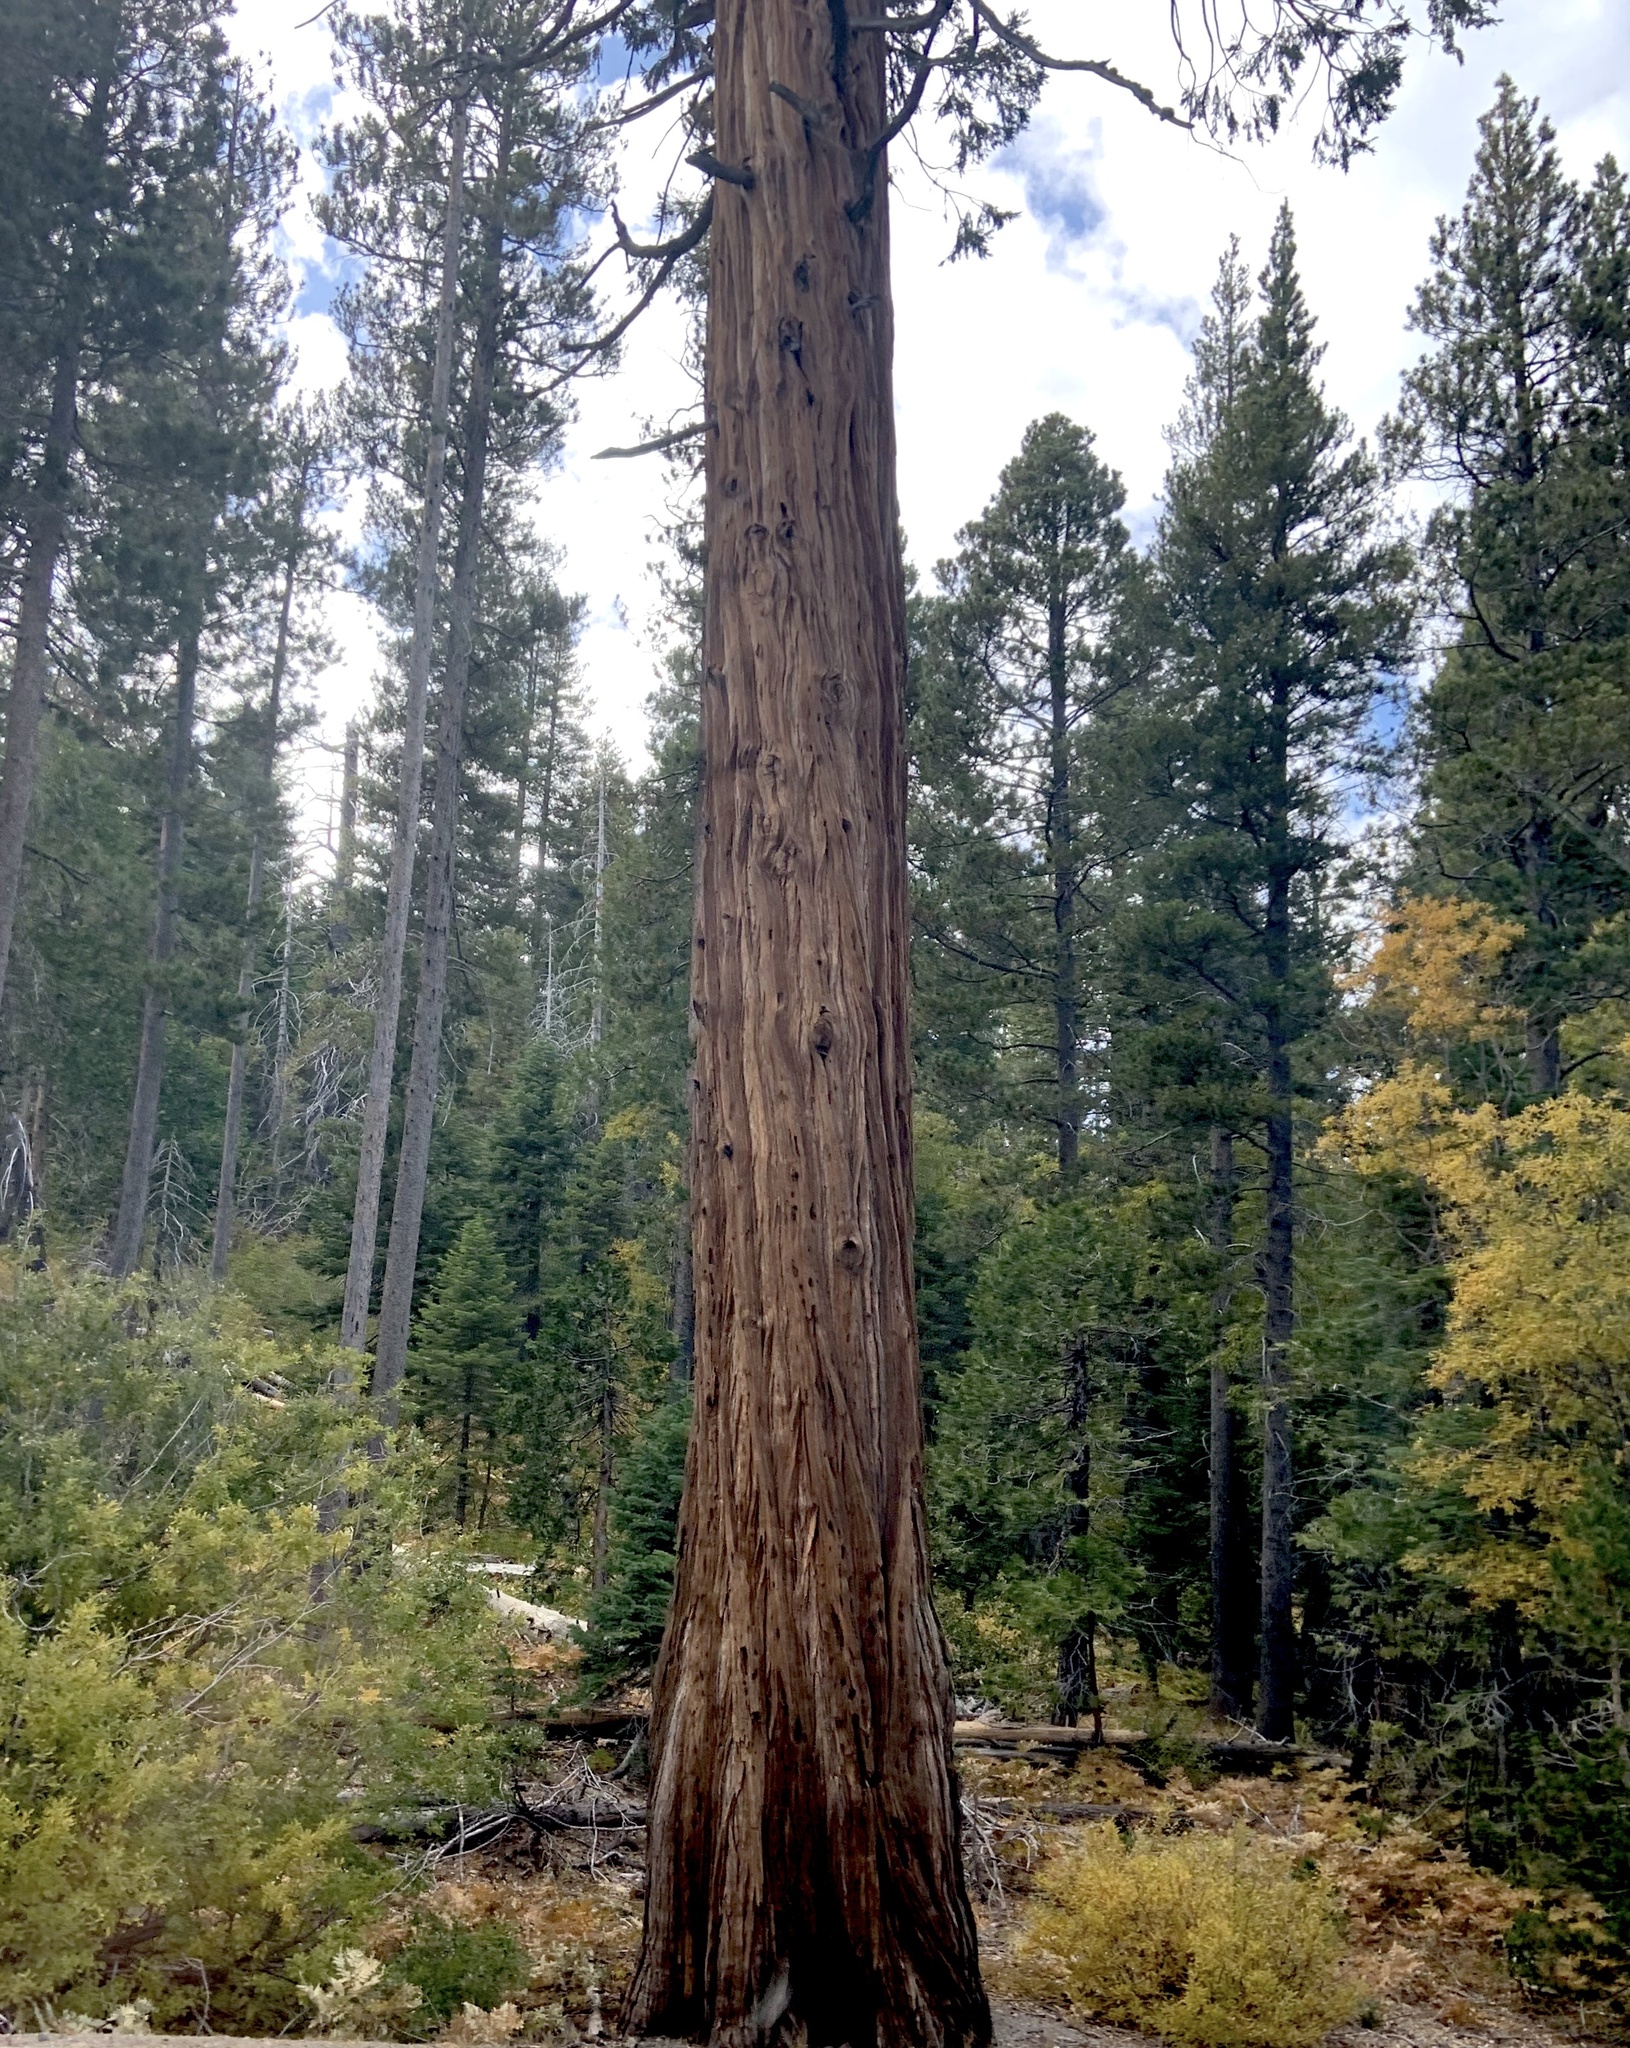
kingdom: Plantae
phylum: Tracheophyta
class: Pinopsida
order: Pinales
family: Cupressaceae
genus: Calocedrus
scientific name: Calocedrus decurrens
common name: Californian incense-cedar
